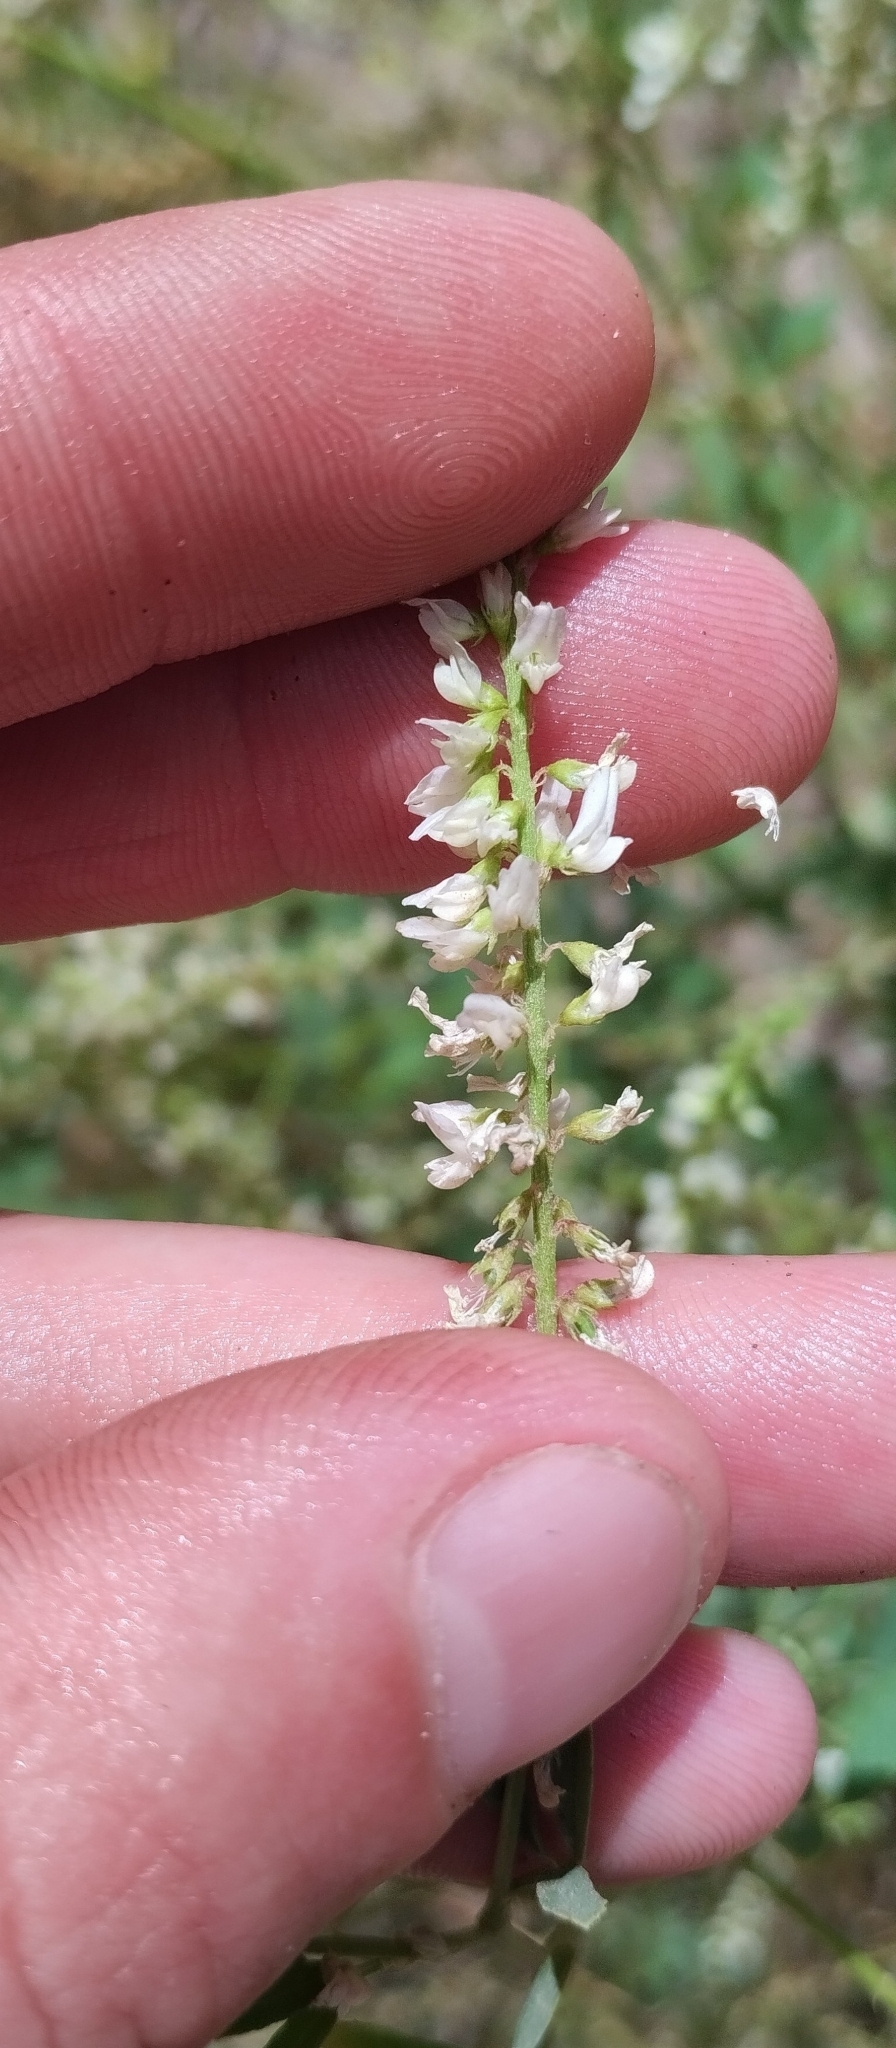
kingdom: Plantae
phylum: Tracheophyta
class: Magnoliopsida
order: Fabales
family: Fabaceae
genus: Melilotus
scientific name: Melilotus albus
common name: White melilot
